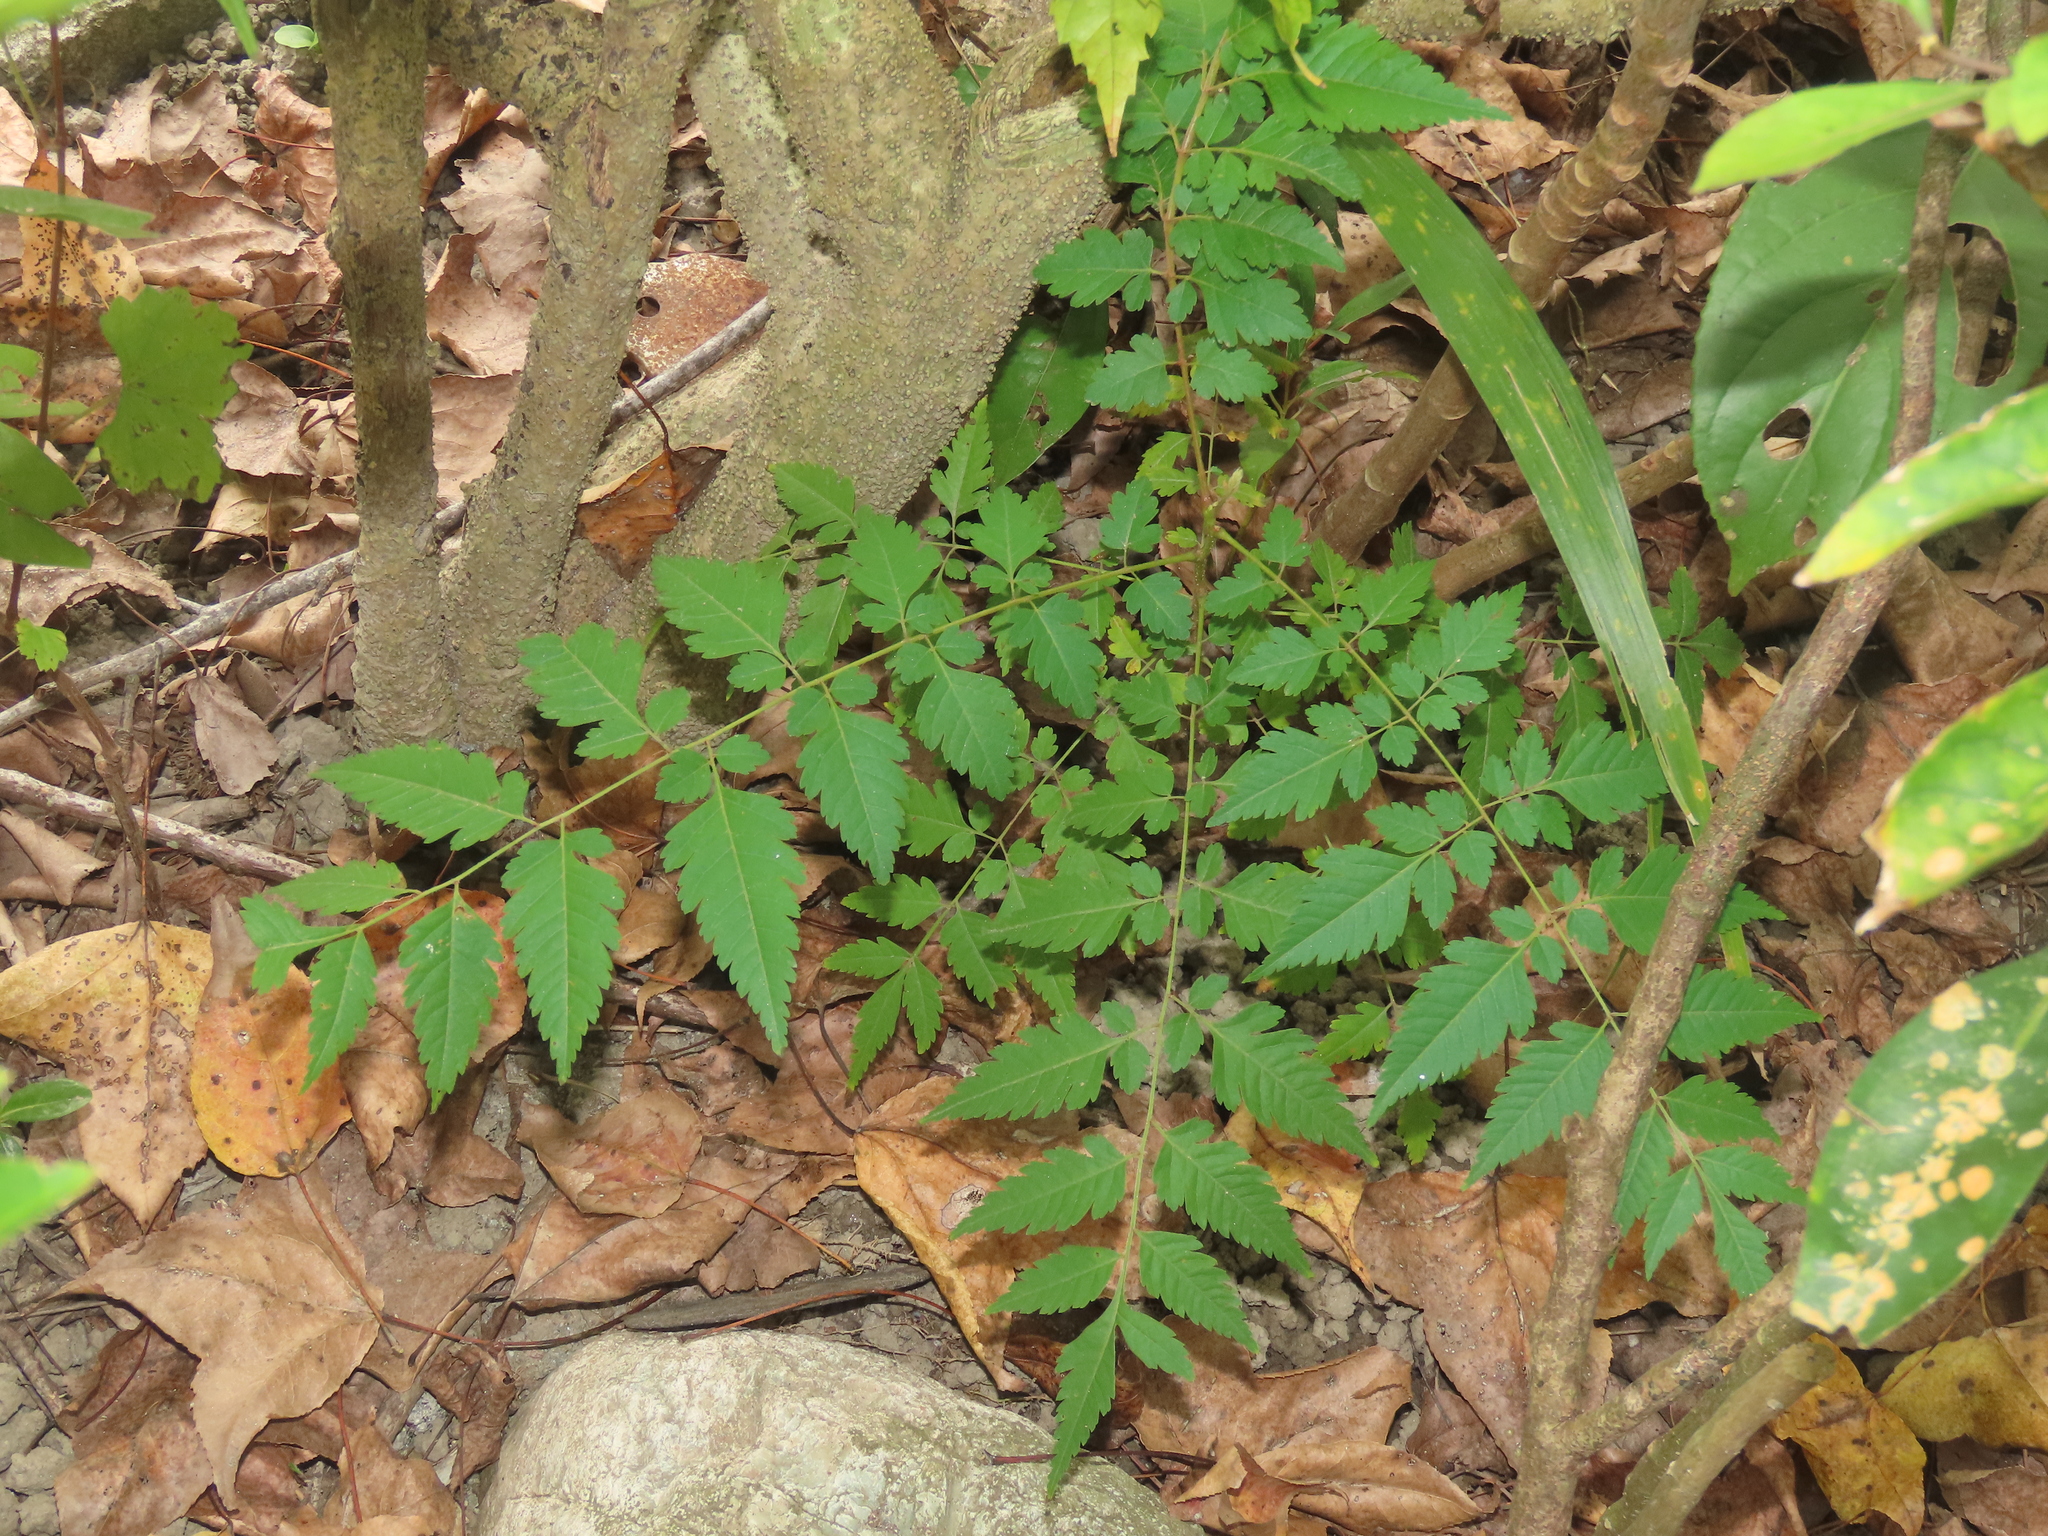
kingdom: Plantae
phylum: Tracheophyta
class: Magnoliopsida
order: Sapindales
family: Sapindaceae
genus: Koelreuteria
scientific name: Koelreuteria elegans
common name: Chinese flame tree
